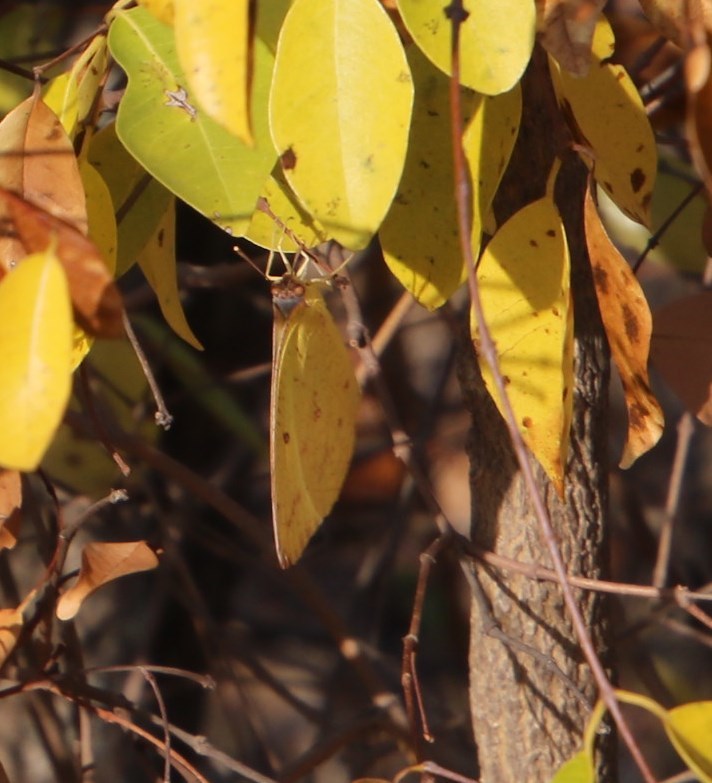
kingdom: Animalia
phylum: Arthropoda
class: Insecta
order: Lepidoptera
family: Pieridae
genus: Catopsilia
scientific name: Catopsilia florella
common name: African migrant
